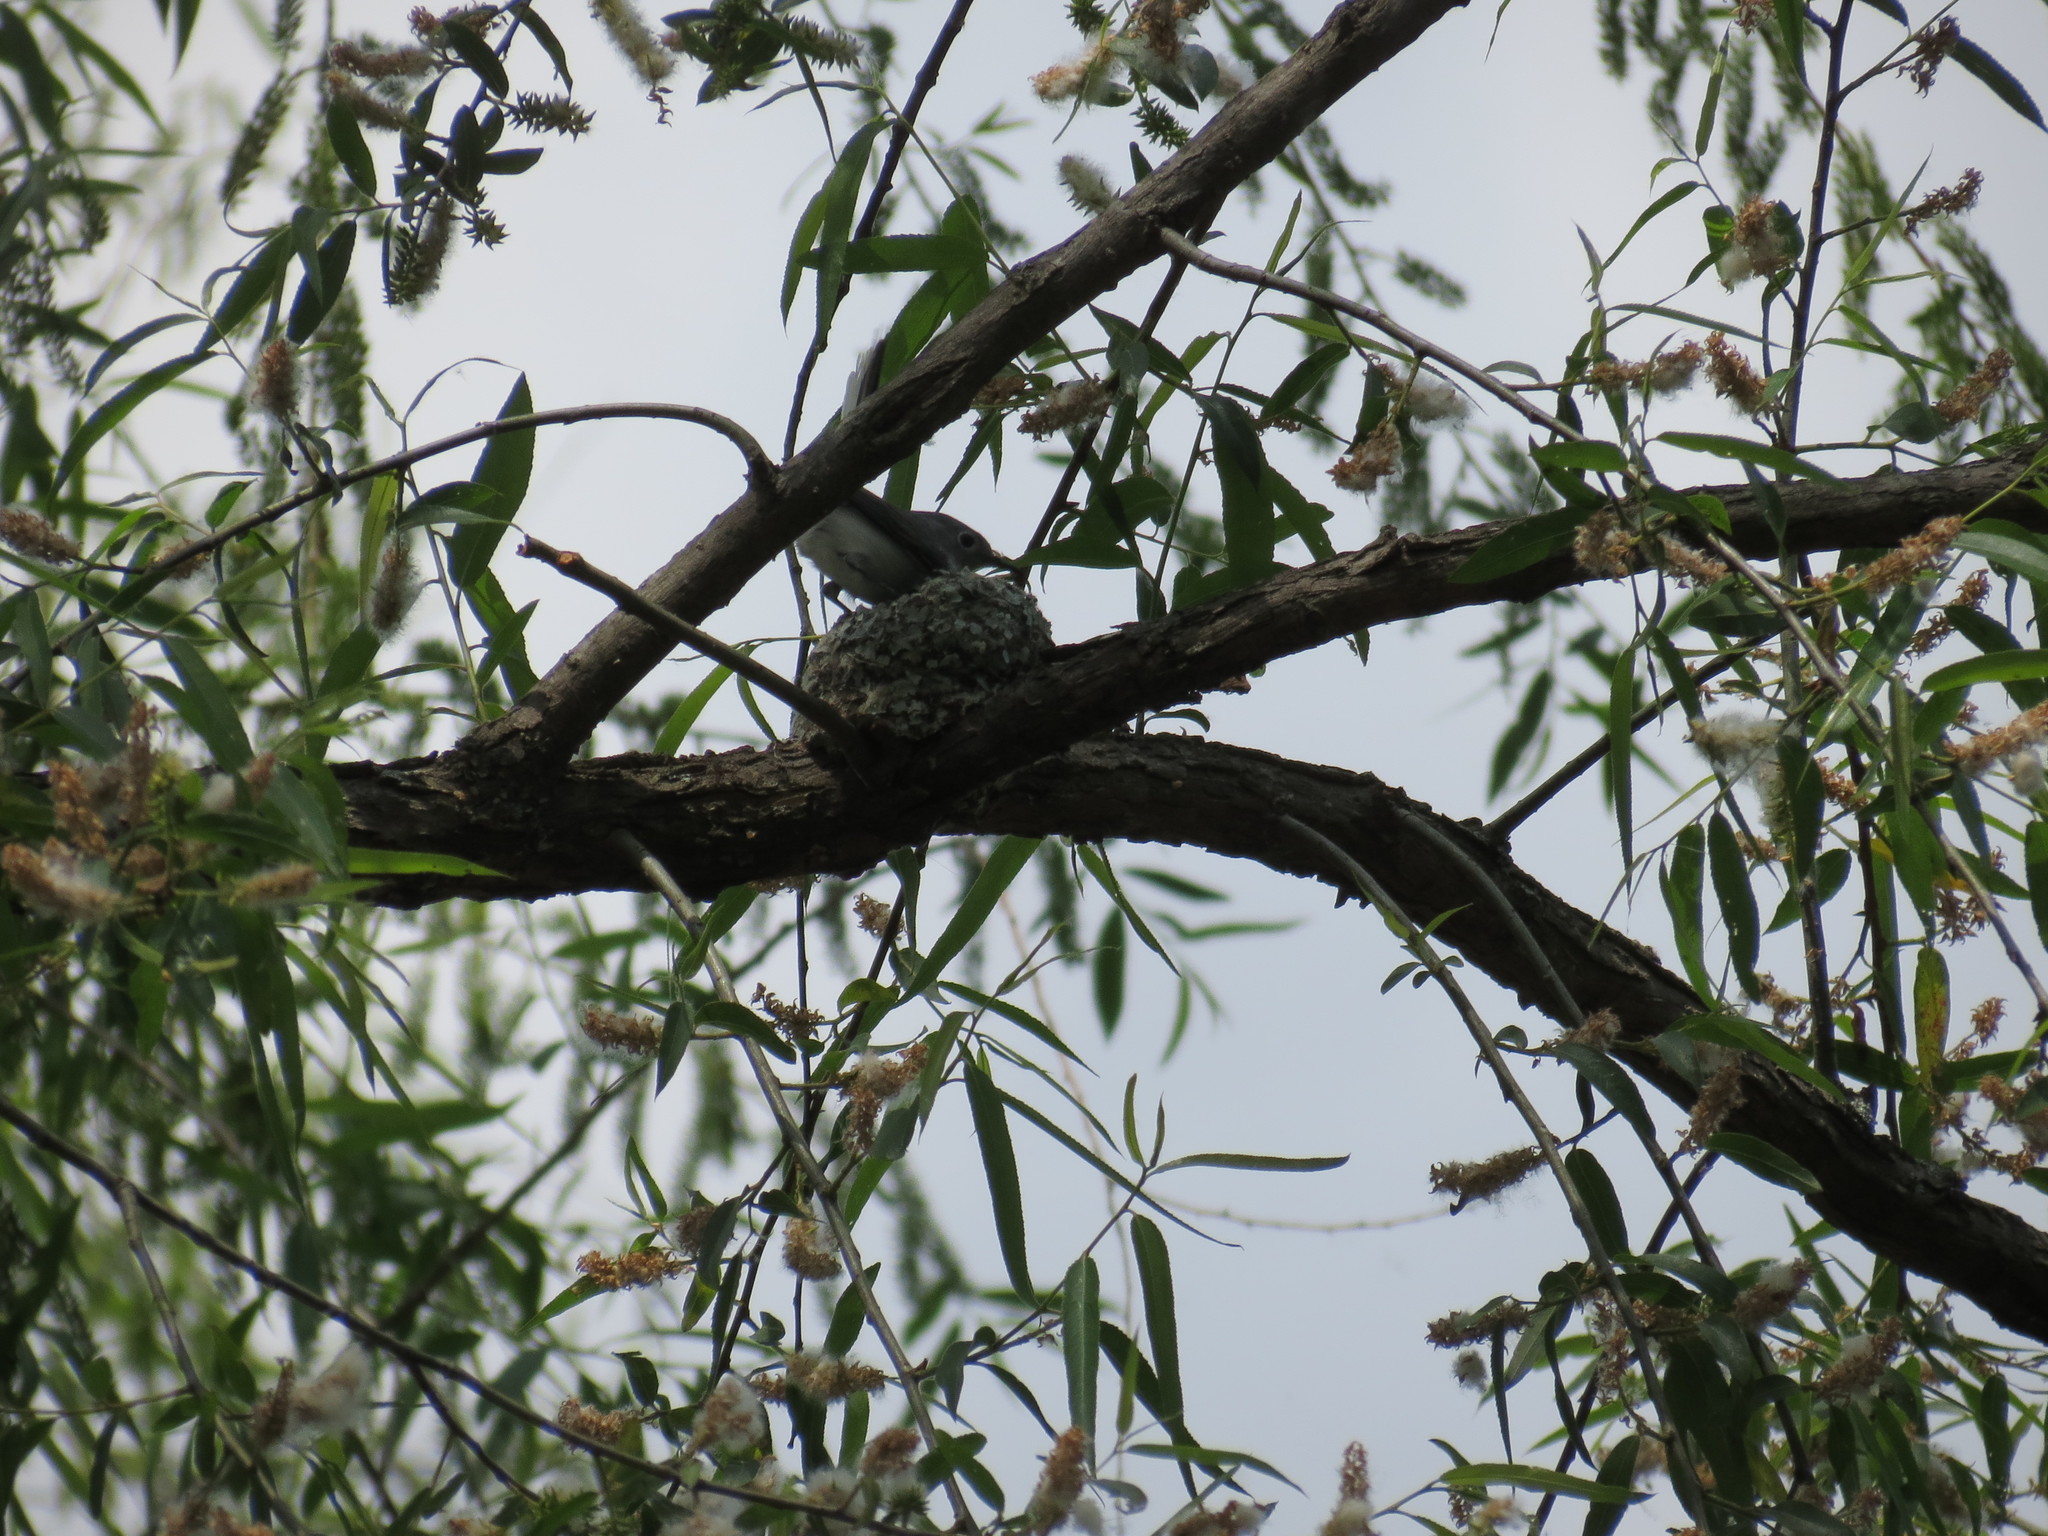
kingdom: Animalia
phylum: Chordata
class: Aves
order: Passeriformes
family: Polioptilidae
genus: Polioptila
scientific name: Polioptila caerulea
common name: Blue-gray gnatcatcher
